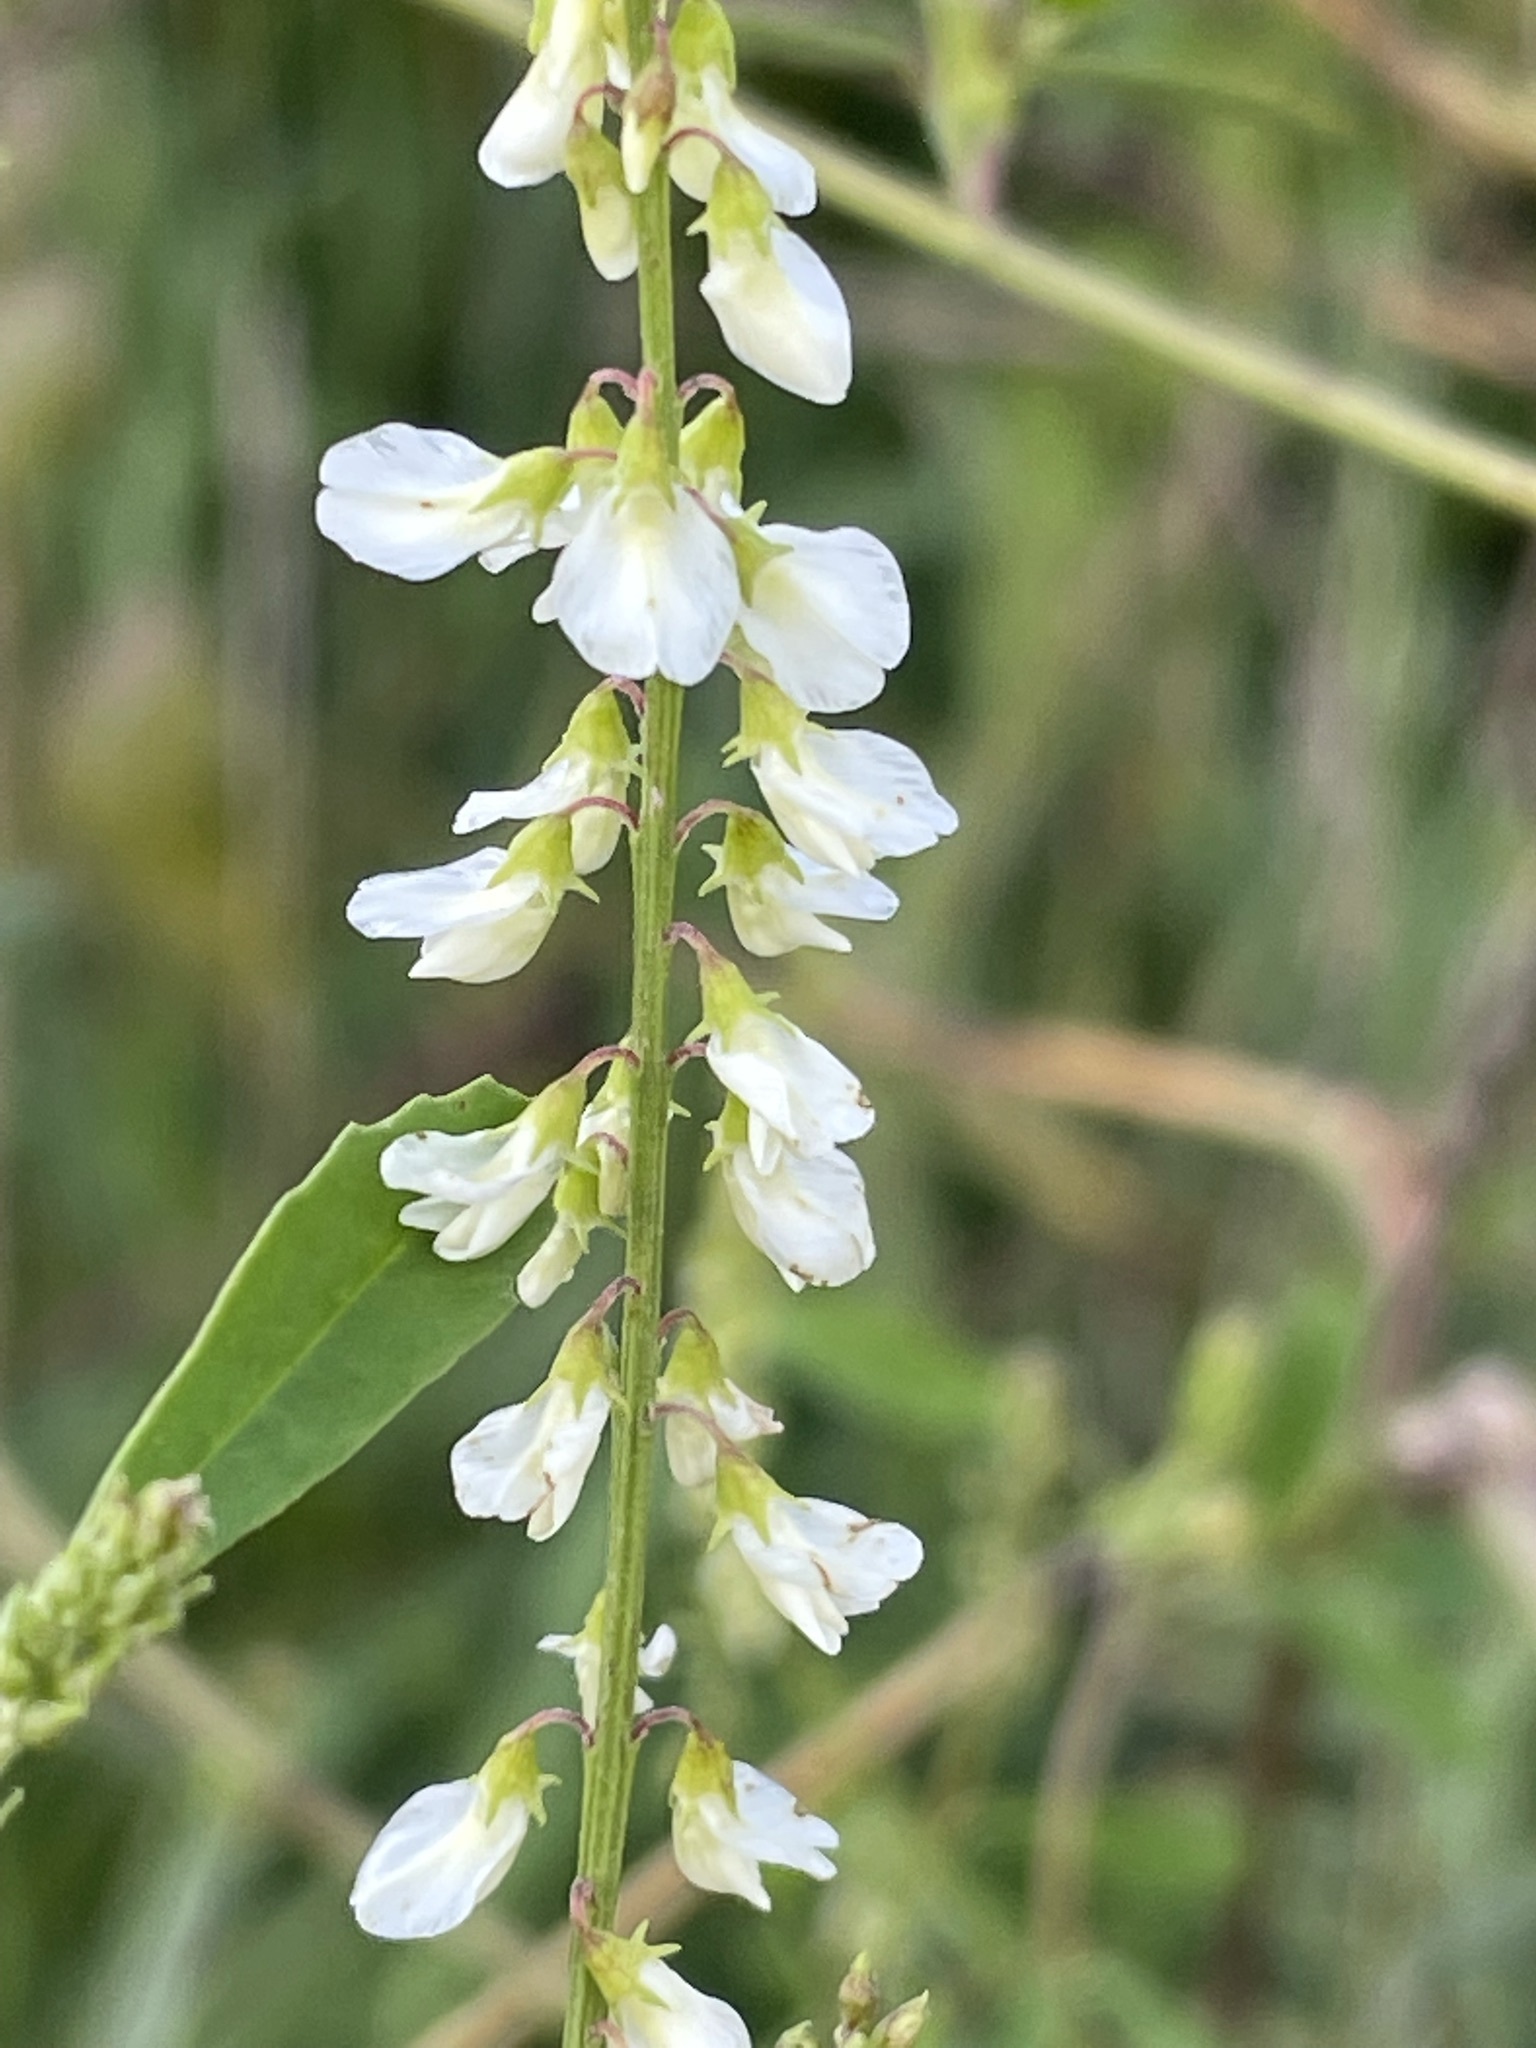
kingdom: Plantae
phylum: Tracheophyta
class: Magnoliopsida
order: Fabales
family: Fabaceae
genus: Melilotus
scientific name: Melilotus albus
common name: White melilot
